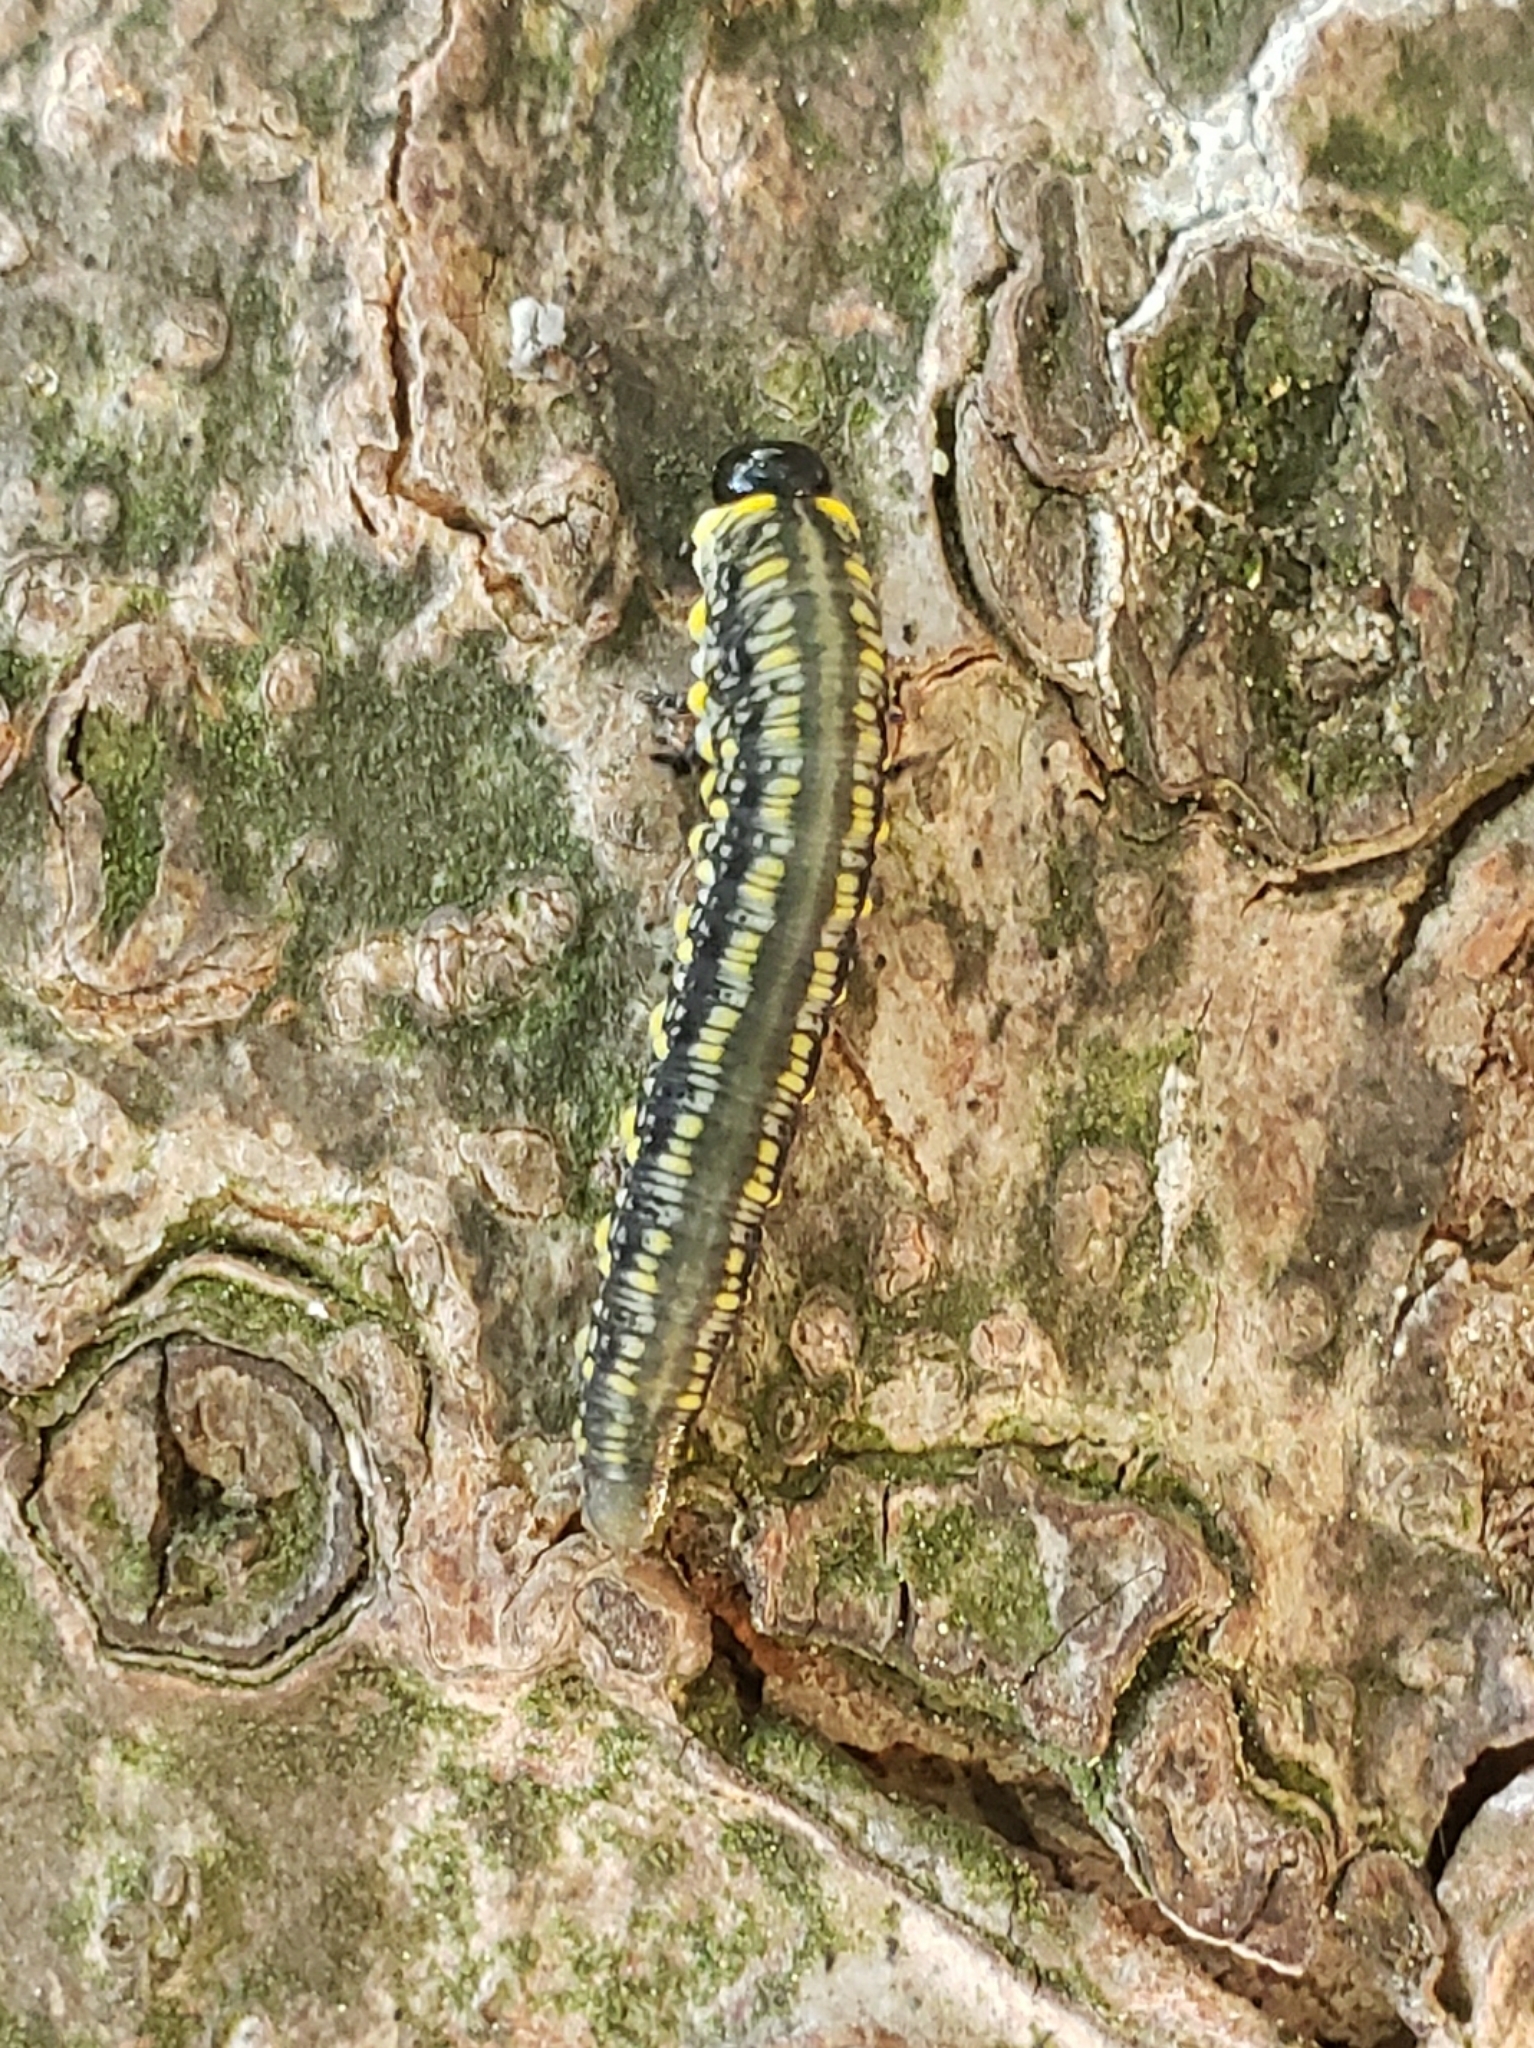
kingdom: Animalia
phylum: Arthropoda
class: Insecta
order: Hymenoptera
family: Diprionidae
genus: Diprion
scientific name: Diprion similis
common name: Pine sawfly
